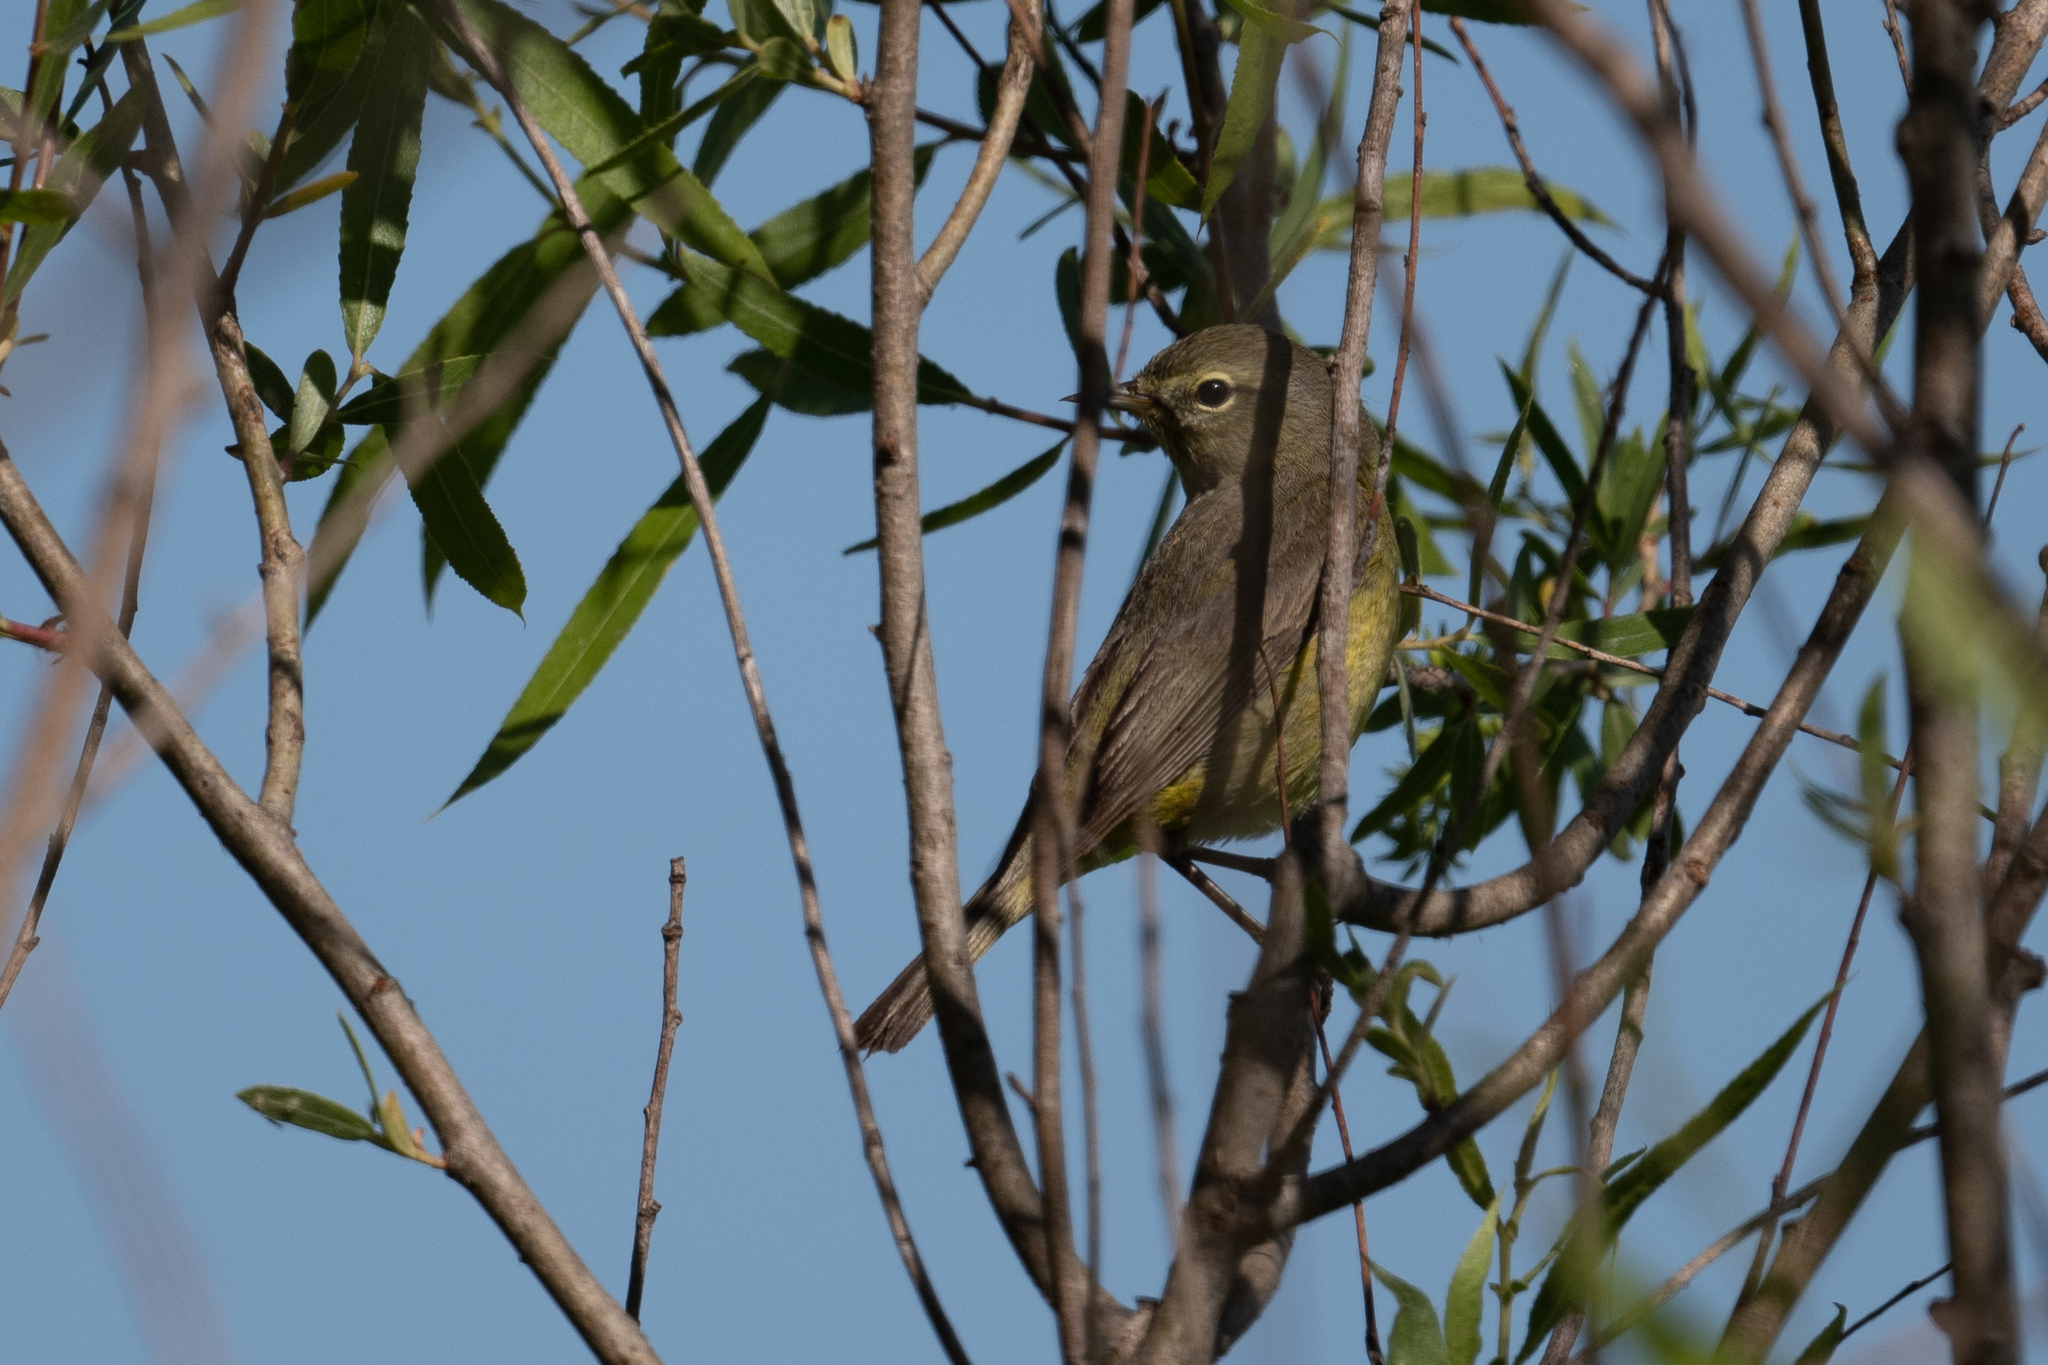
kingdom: Animalia
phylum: Chordata
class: Aves
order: Passeriformes
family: Parulidae
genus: Leiothlypis
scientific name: Leiothlypis celata
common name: Orange-crowned warbler
